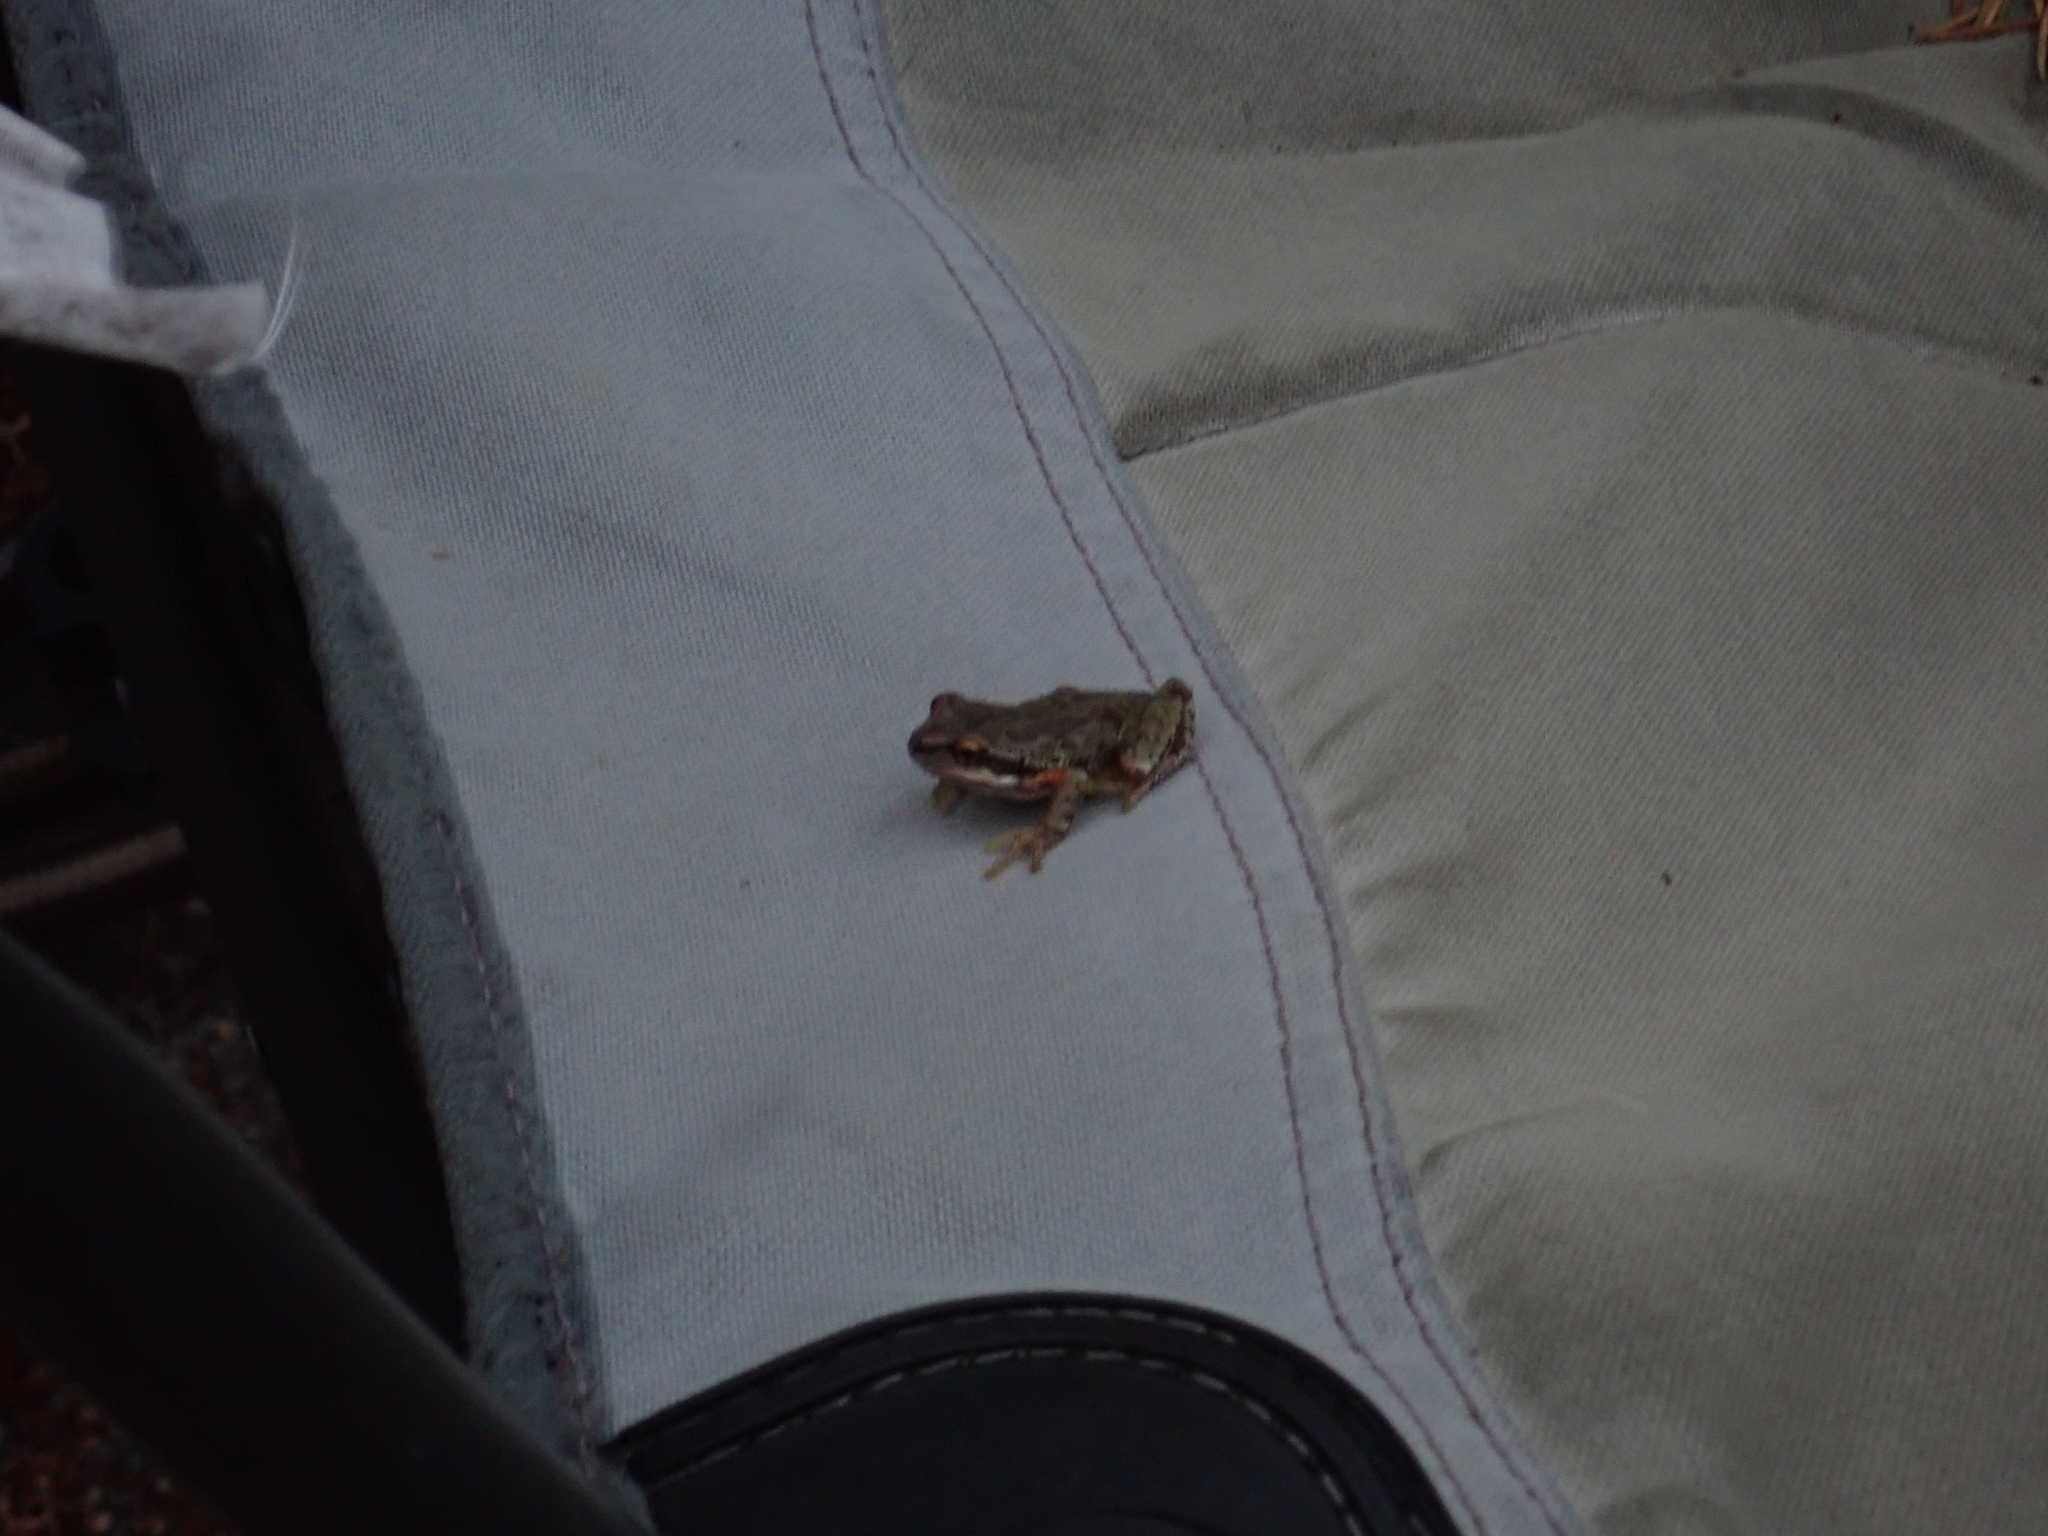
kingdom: Animalia
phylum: Chordata
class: Amphibia
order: Anura
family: Hylidae
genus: Pseudacris
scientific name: Pseudacris regilla
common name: Pacific chorus frog
